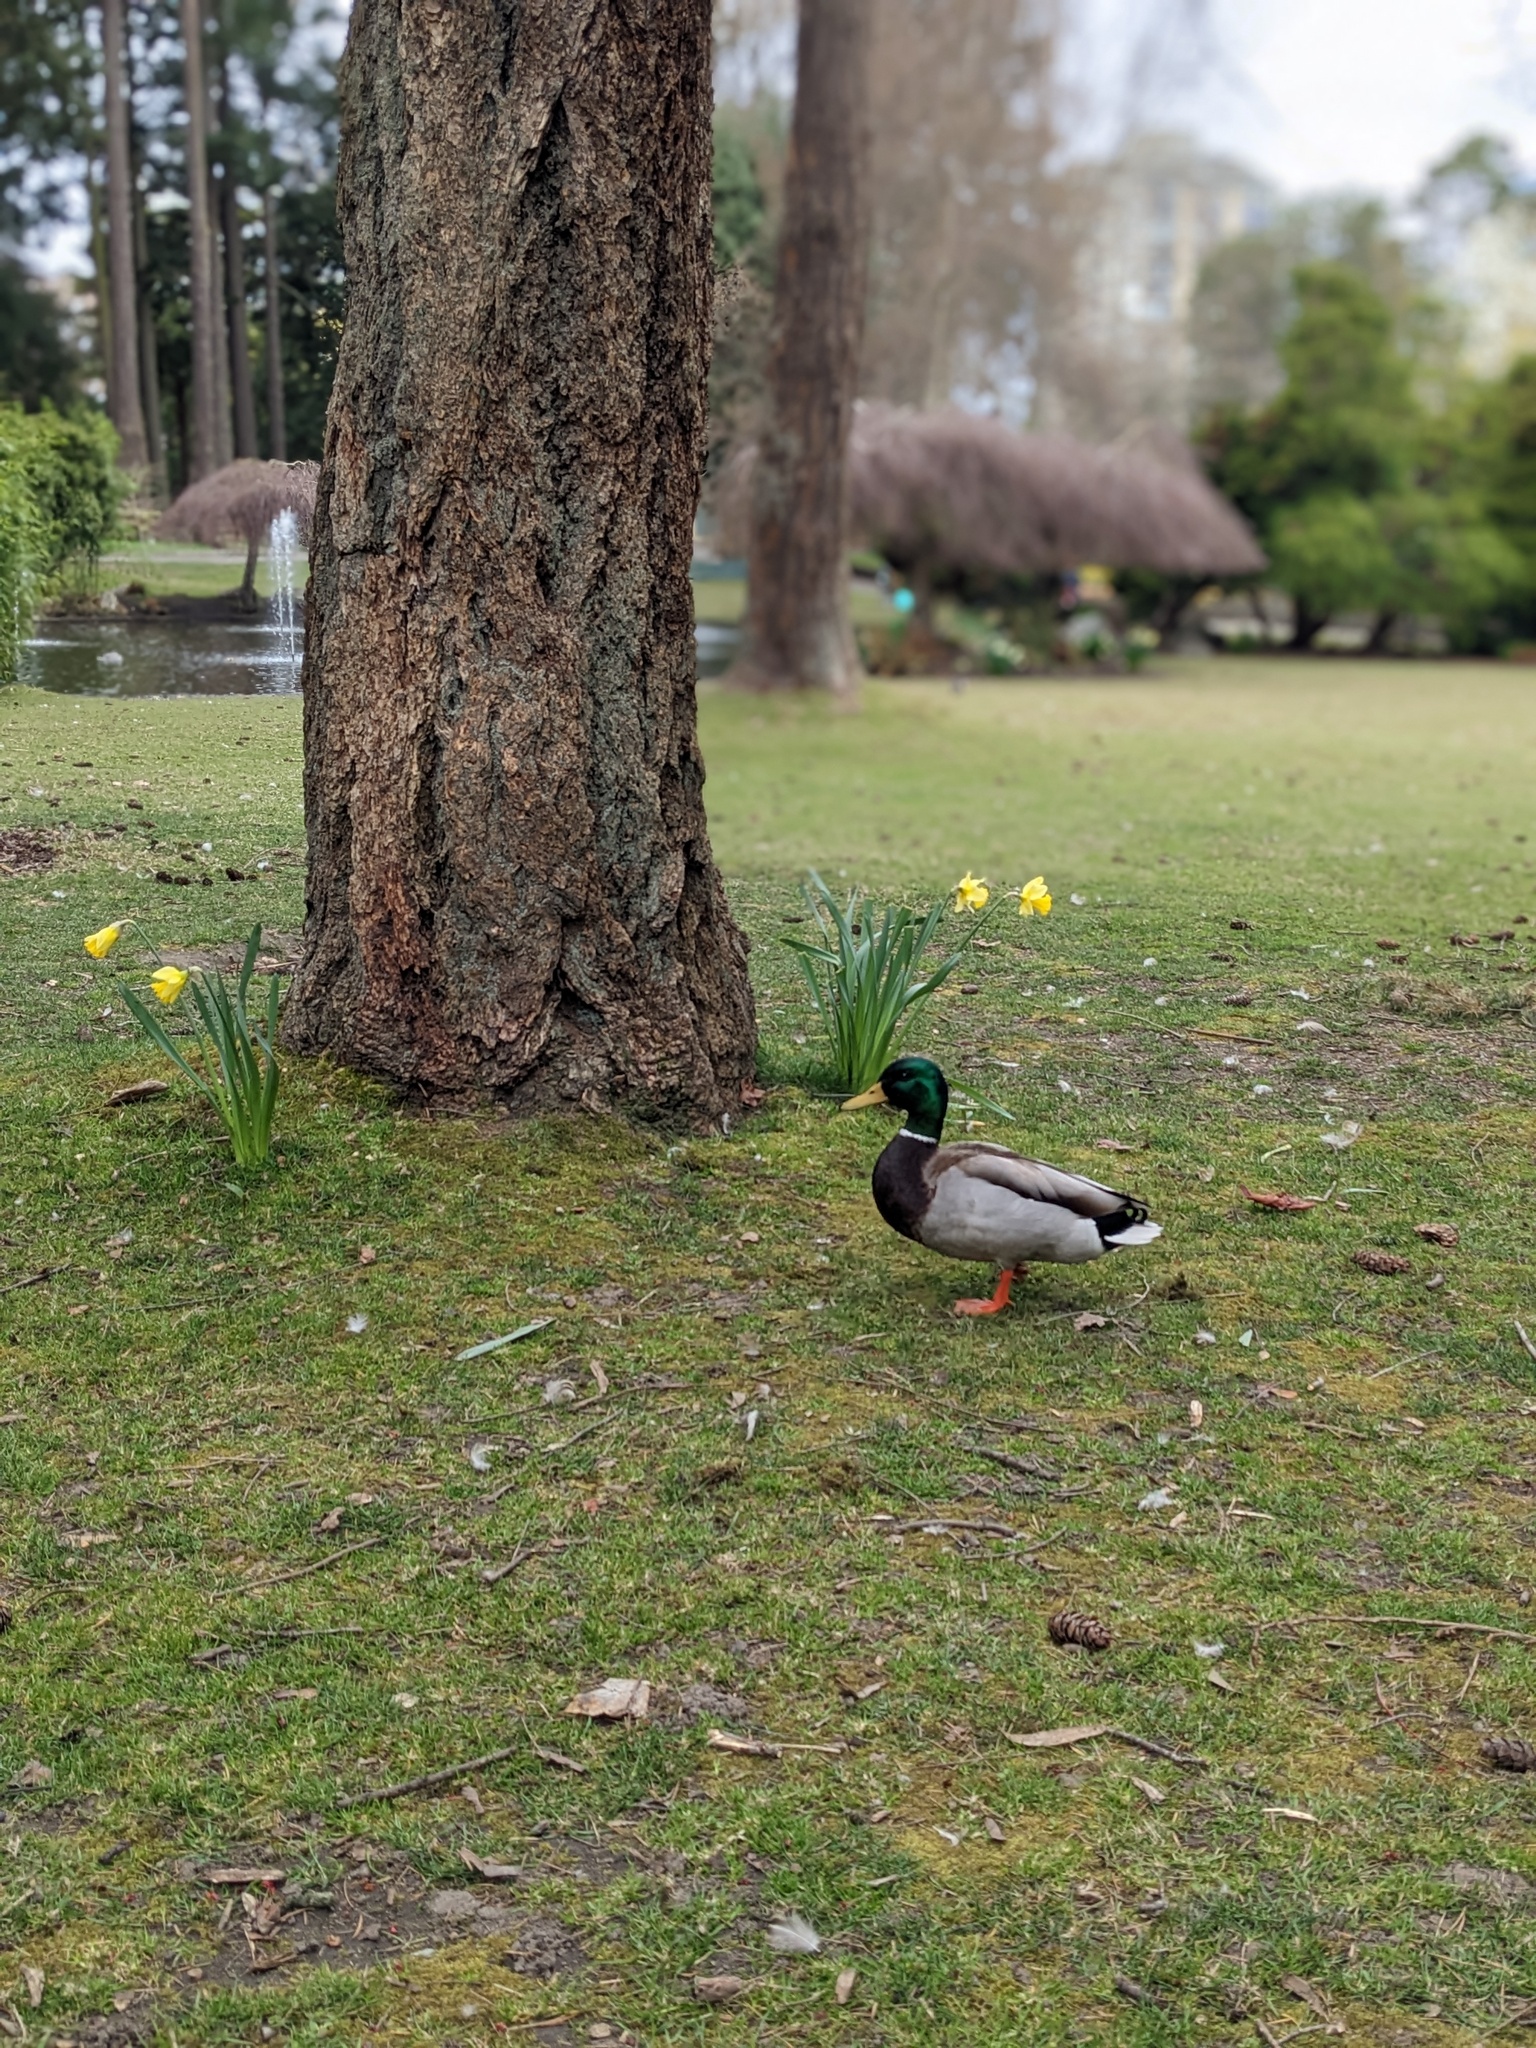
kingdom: Animalia
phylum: Chordata
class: Aves
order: Anseriformes
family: Anatidae
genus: Anas
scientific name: Anas platyrhynchos
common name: Mallard
